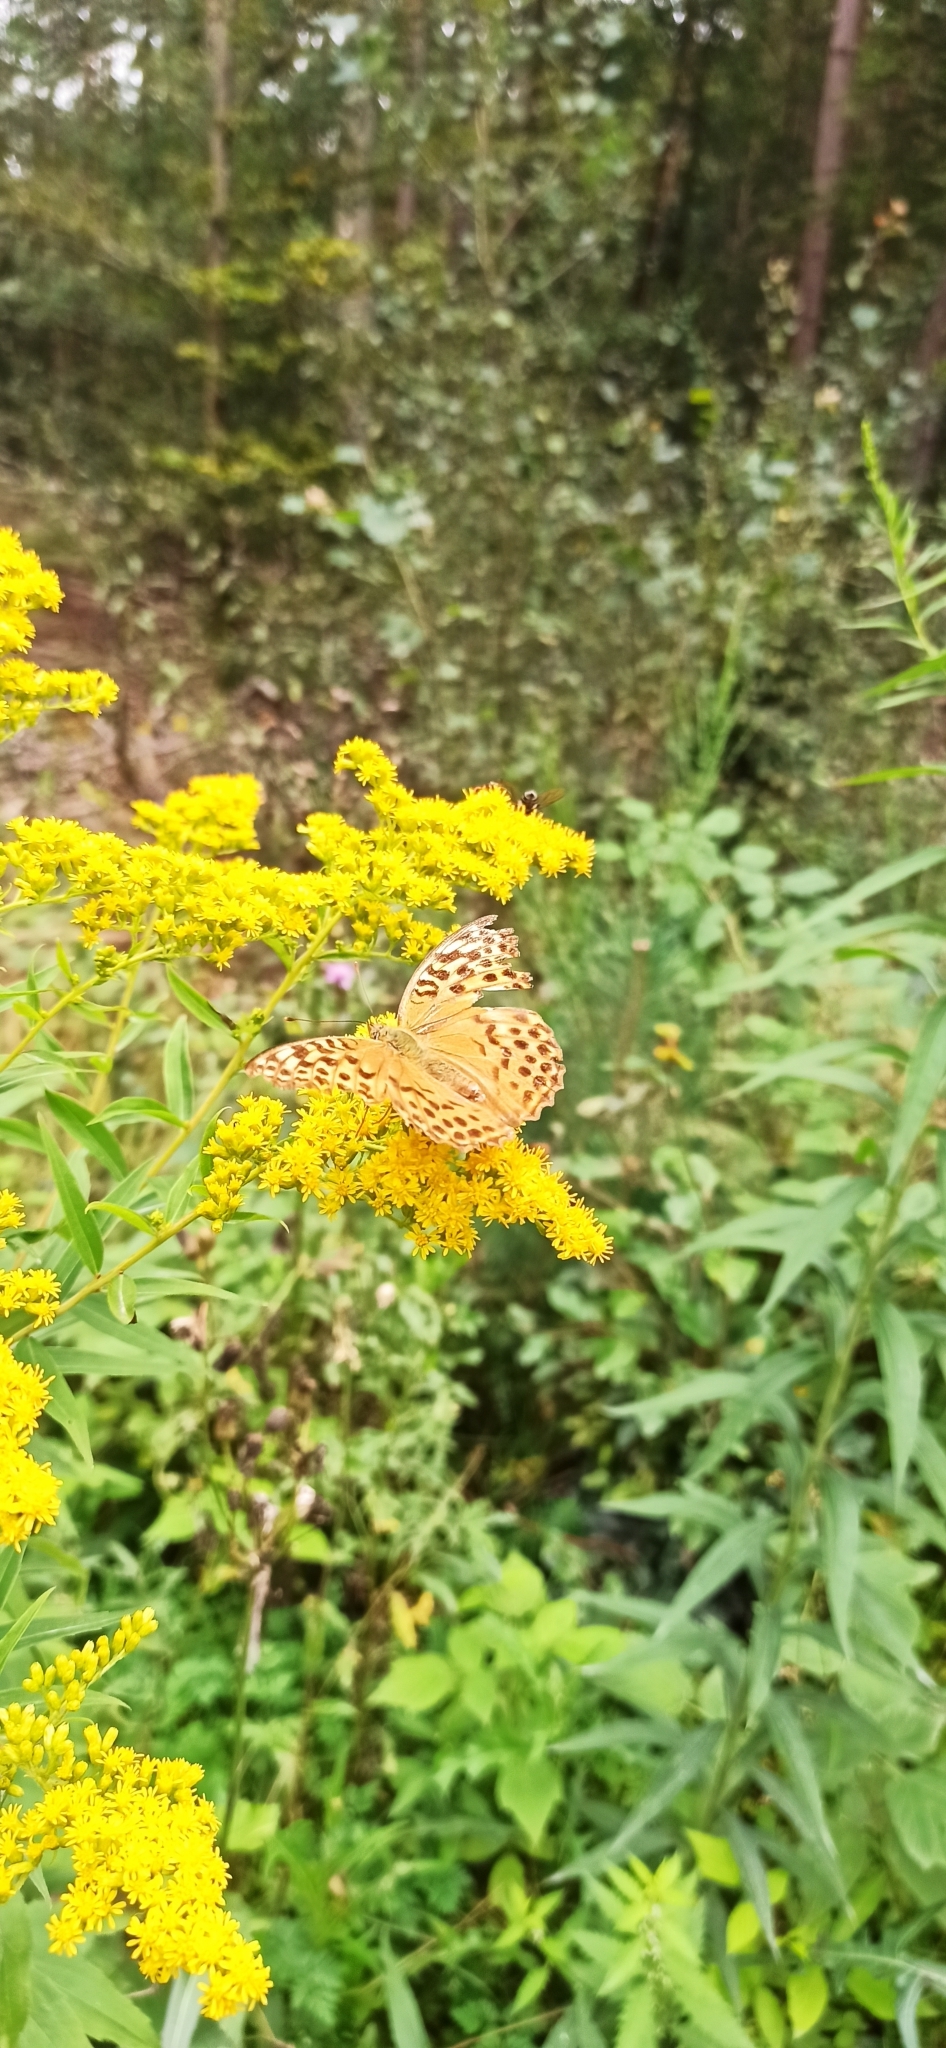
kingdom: Animalia
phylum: Arthropoda
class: Insecta
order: Lepidoptera
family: Nymphalidae
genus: Argynnis
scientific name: Argynnis paphia
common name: Silver-washed fritillary
